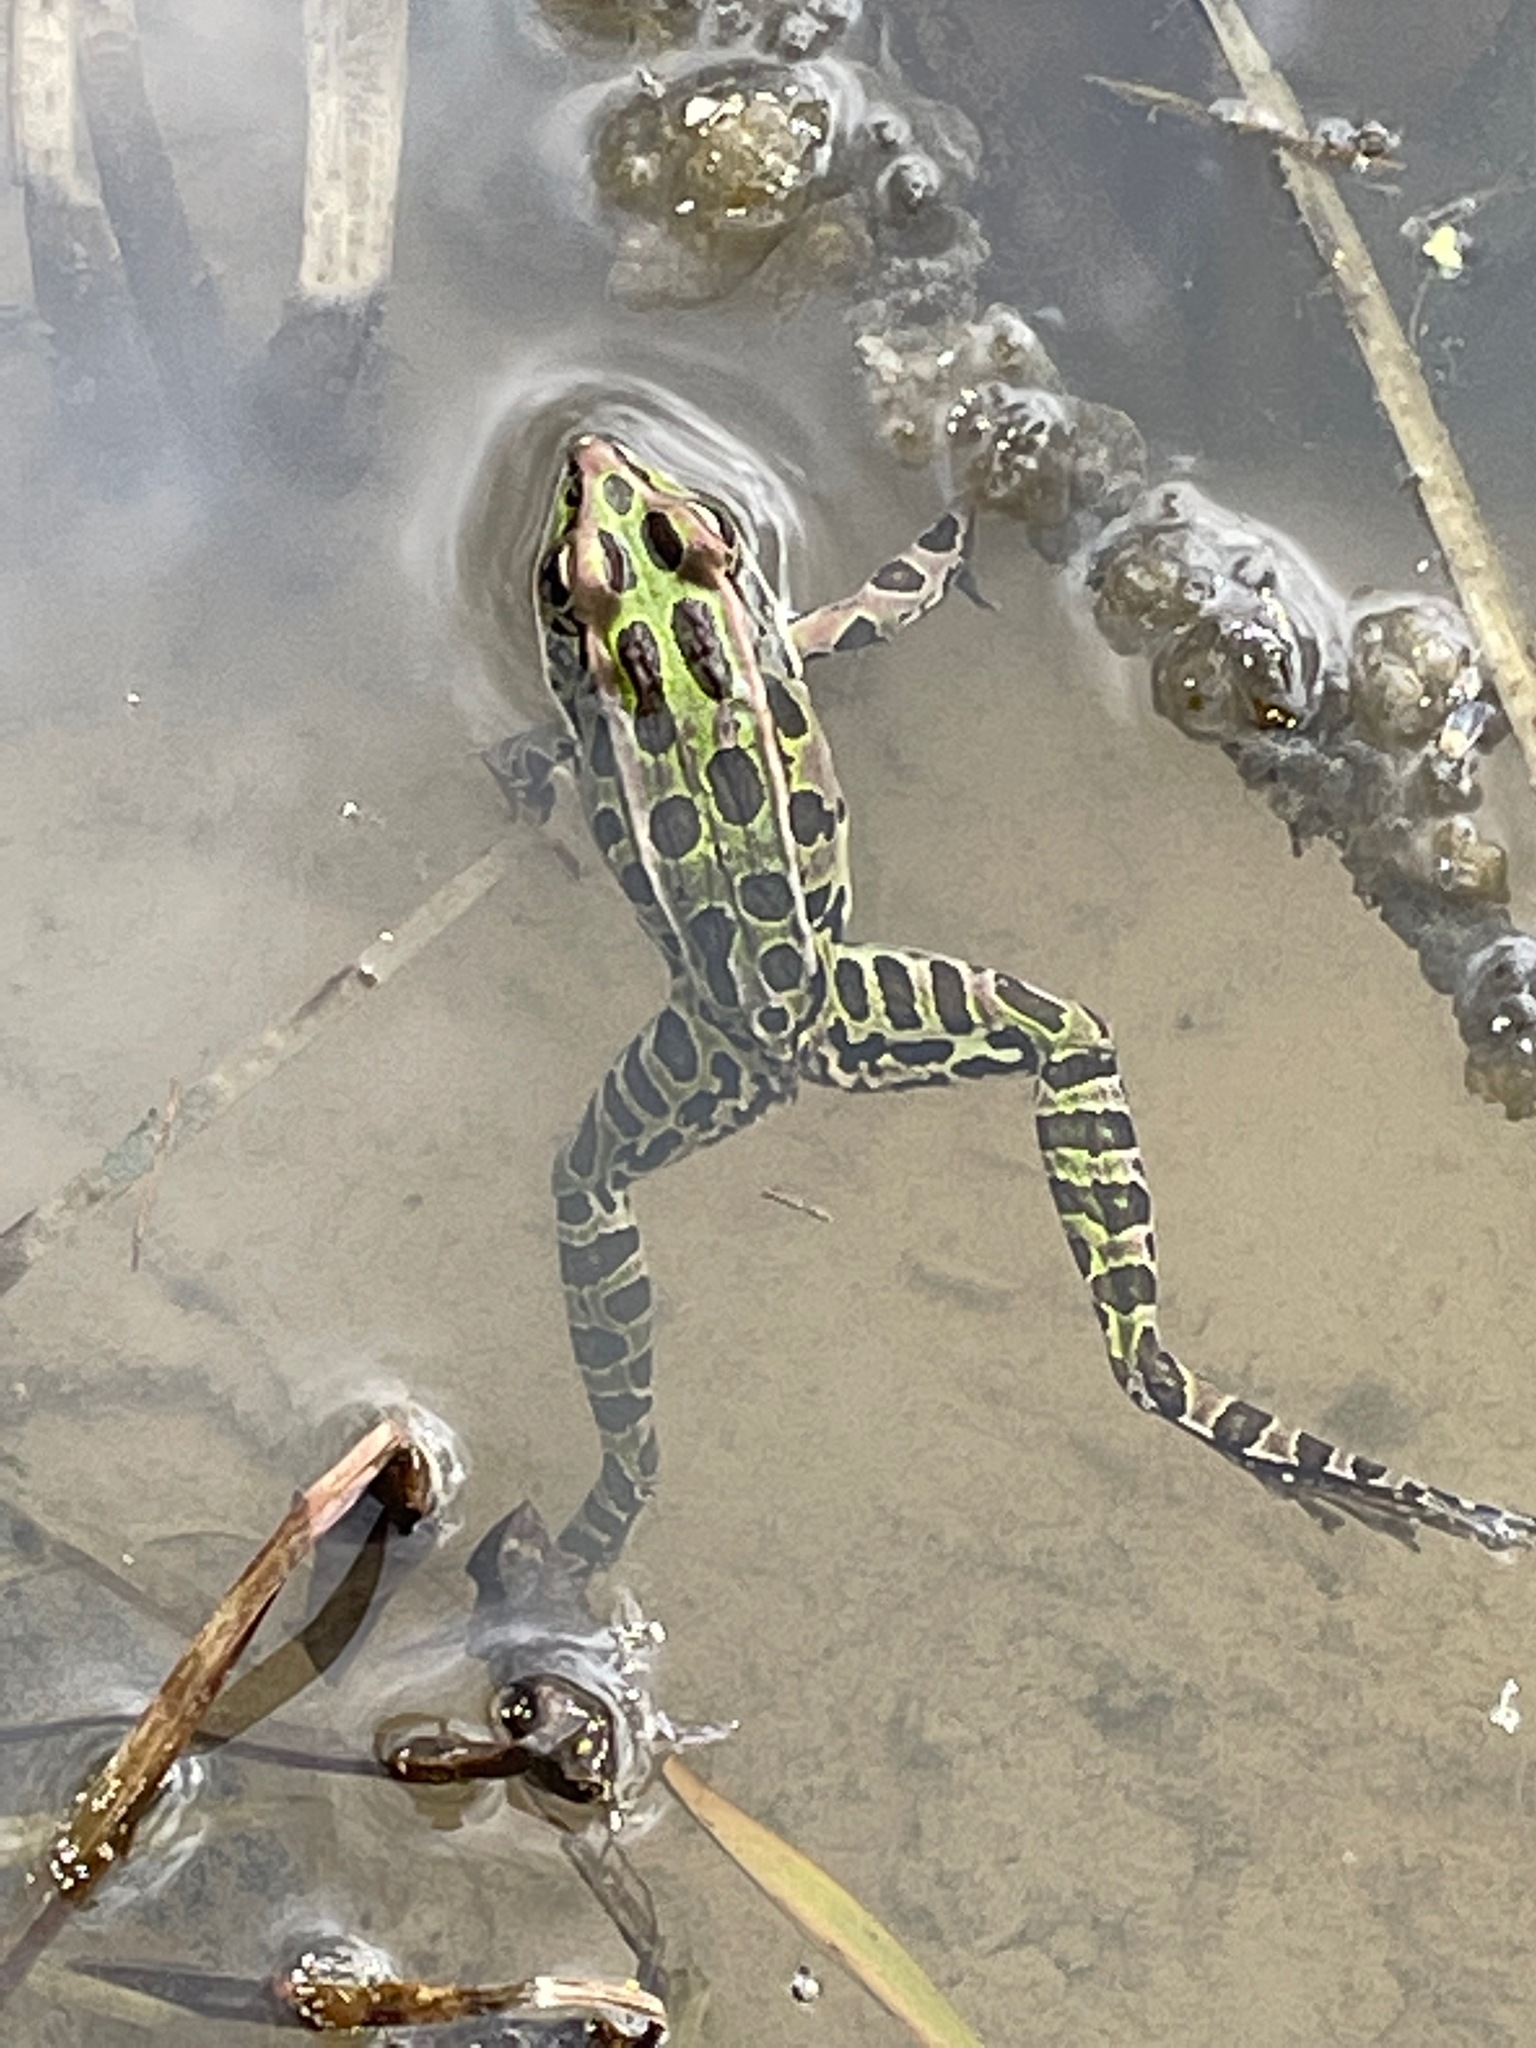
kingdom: Animalia
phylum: Chordata
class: Amphibia
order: Anura
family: Ranidae
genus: Lithobates
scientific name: Lithobates pipiens
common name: Northern leopard frog
